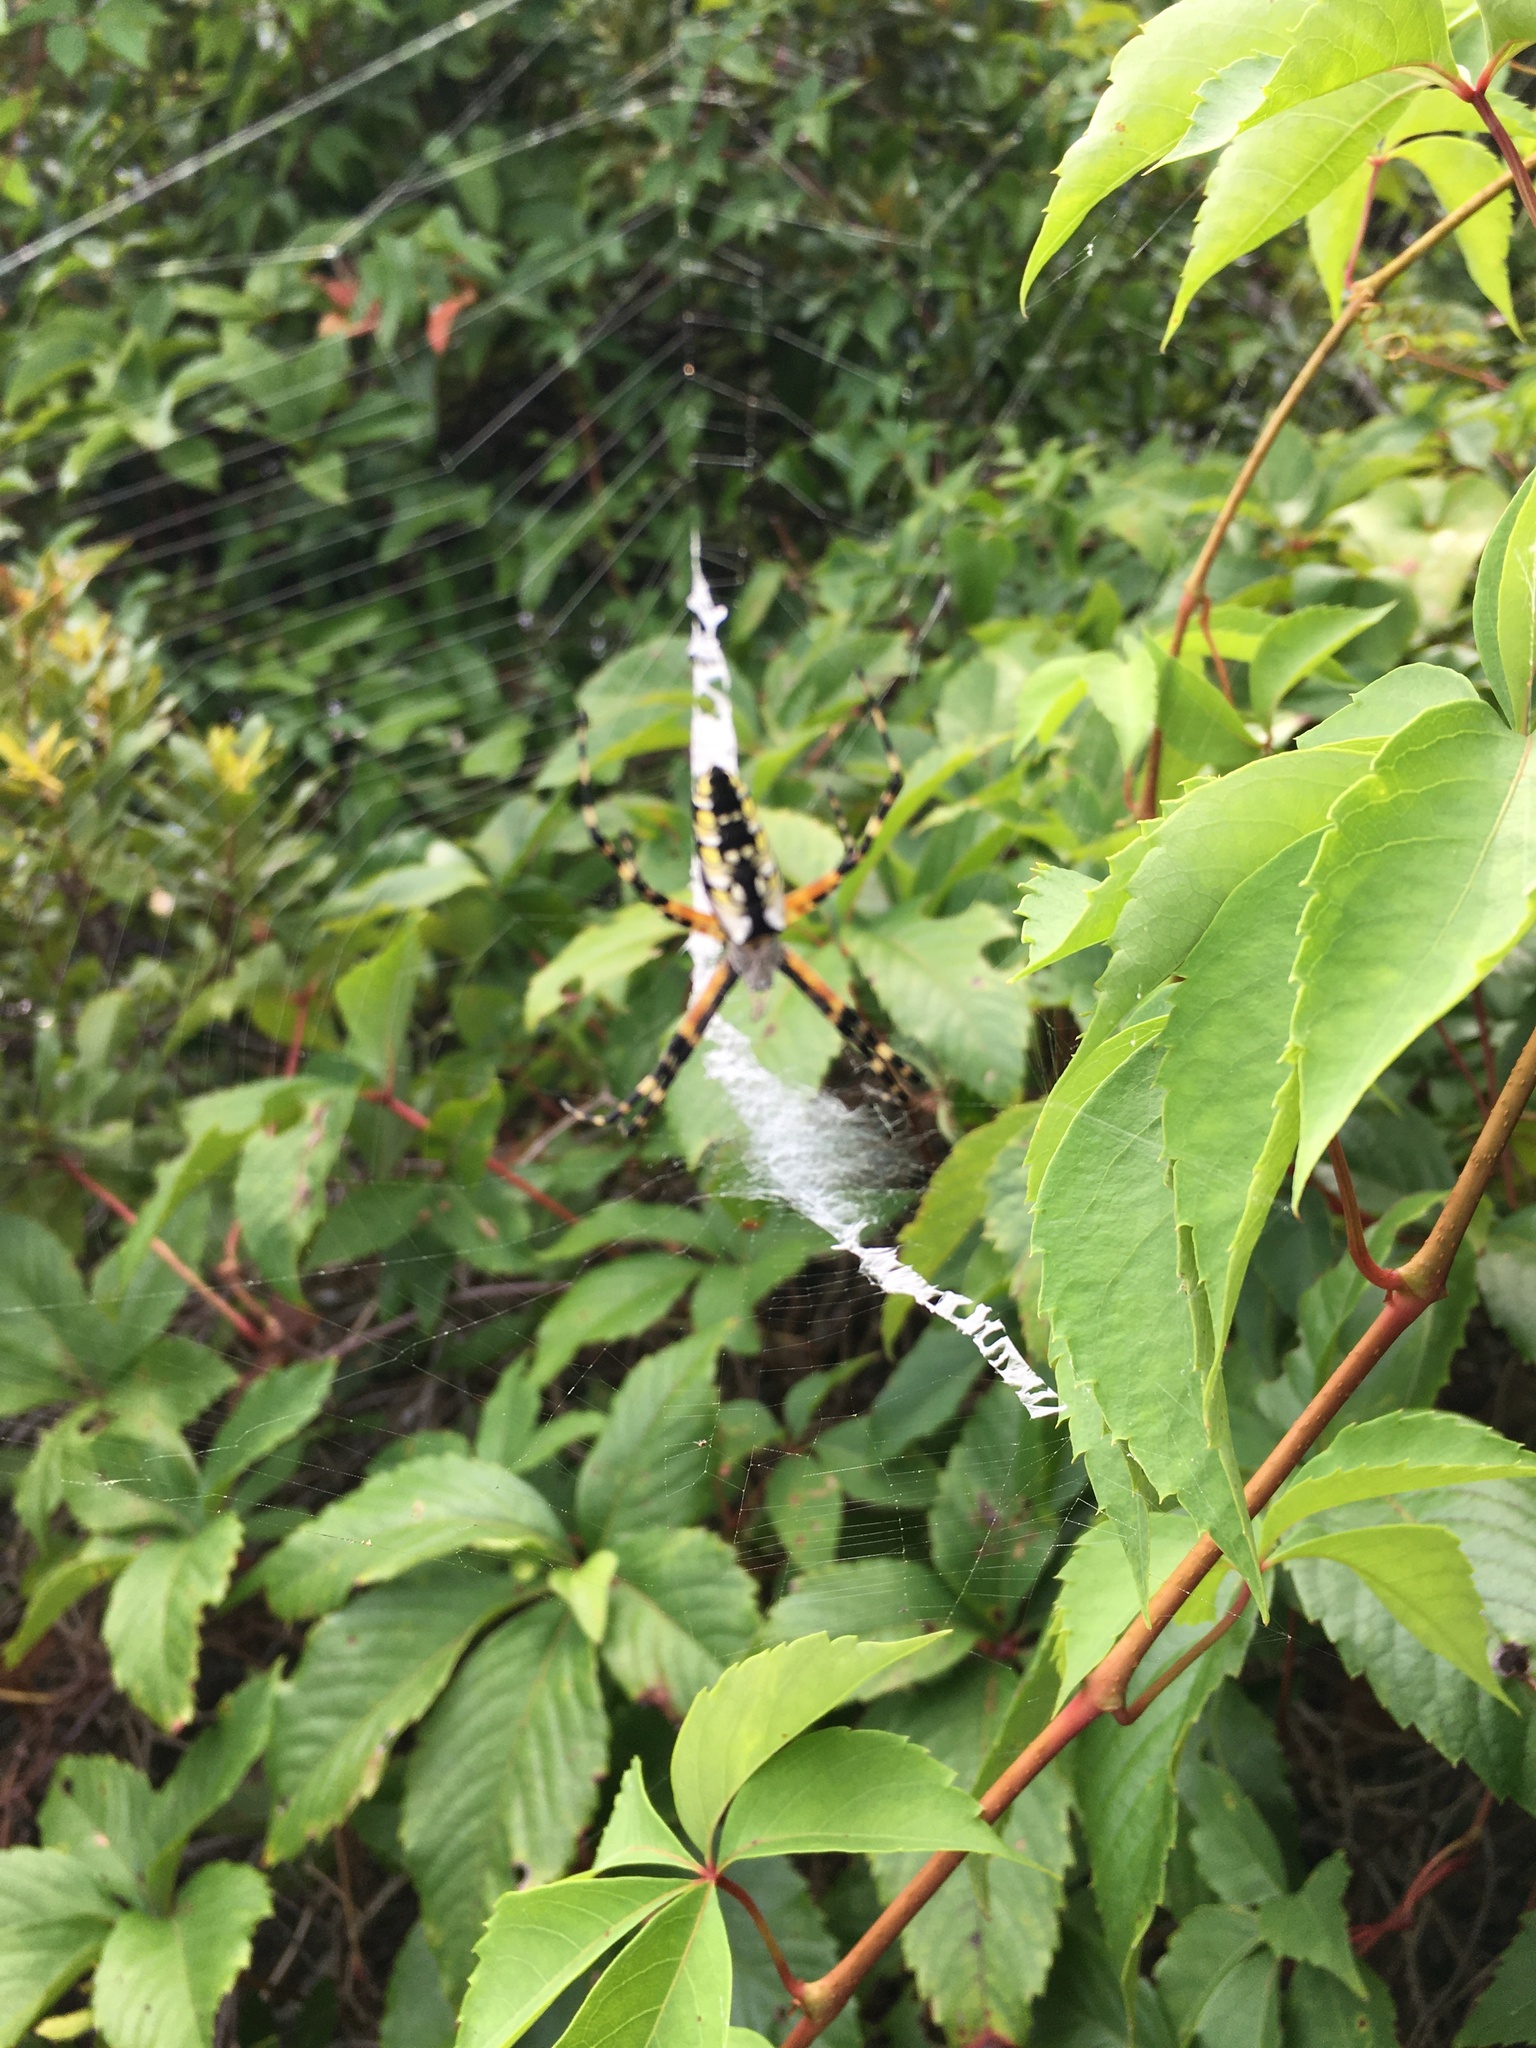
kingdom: Animalia
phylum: Arthropoda
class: Arachnida
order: Araneae
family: Araneidae
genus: Argiope
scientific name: Argiope aurantia
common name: Orb weavers
